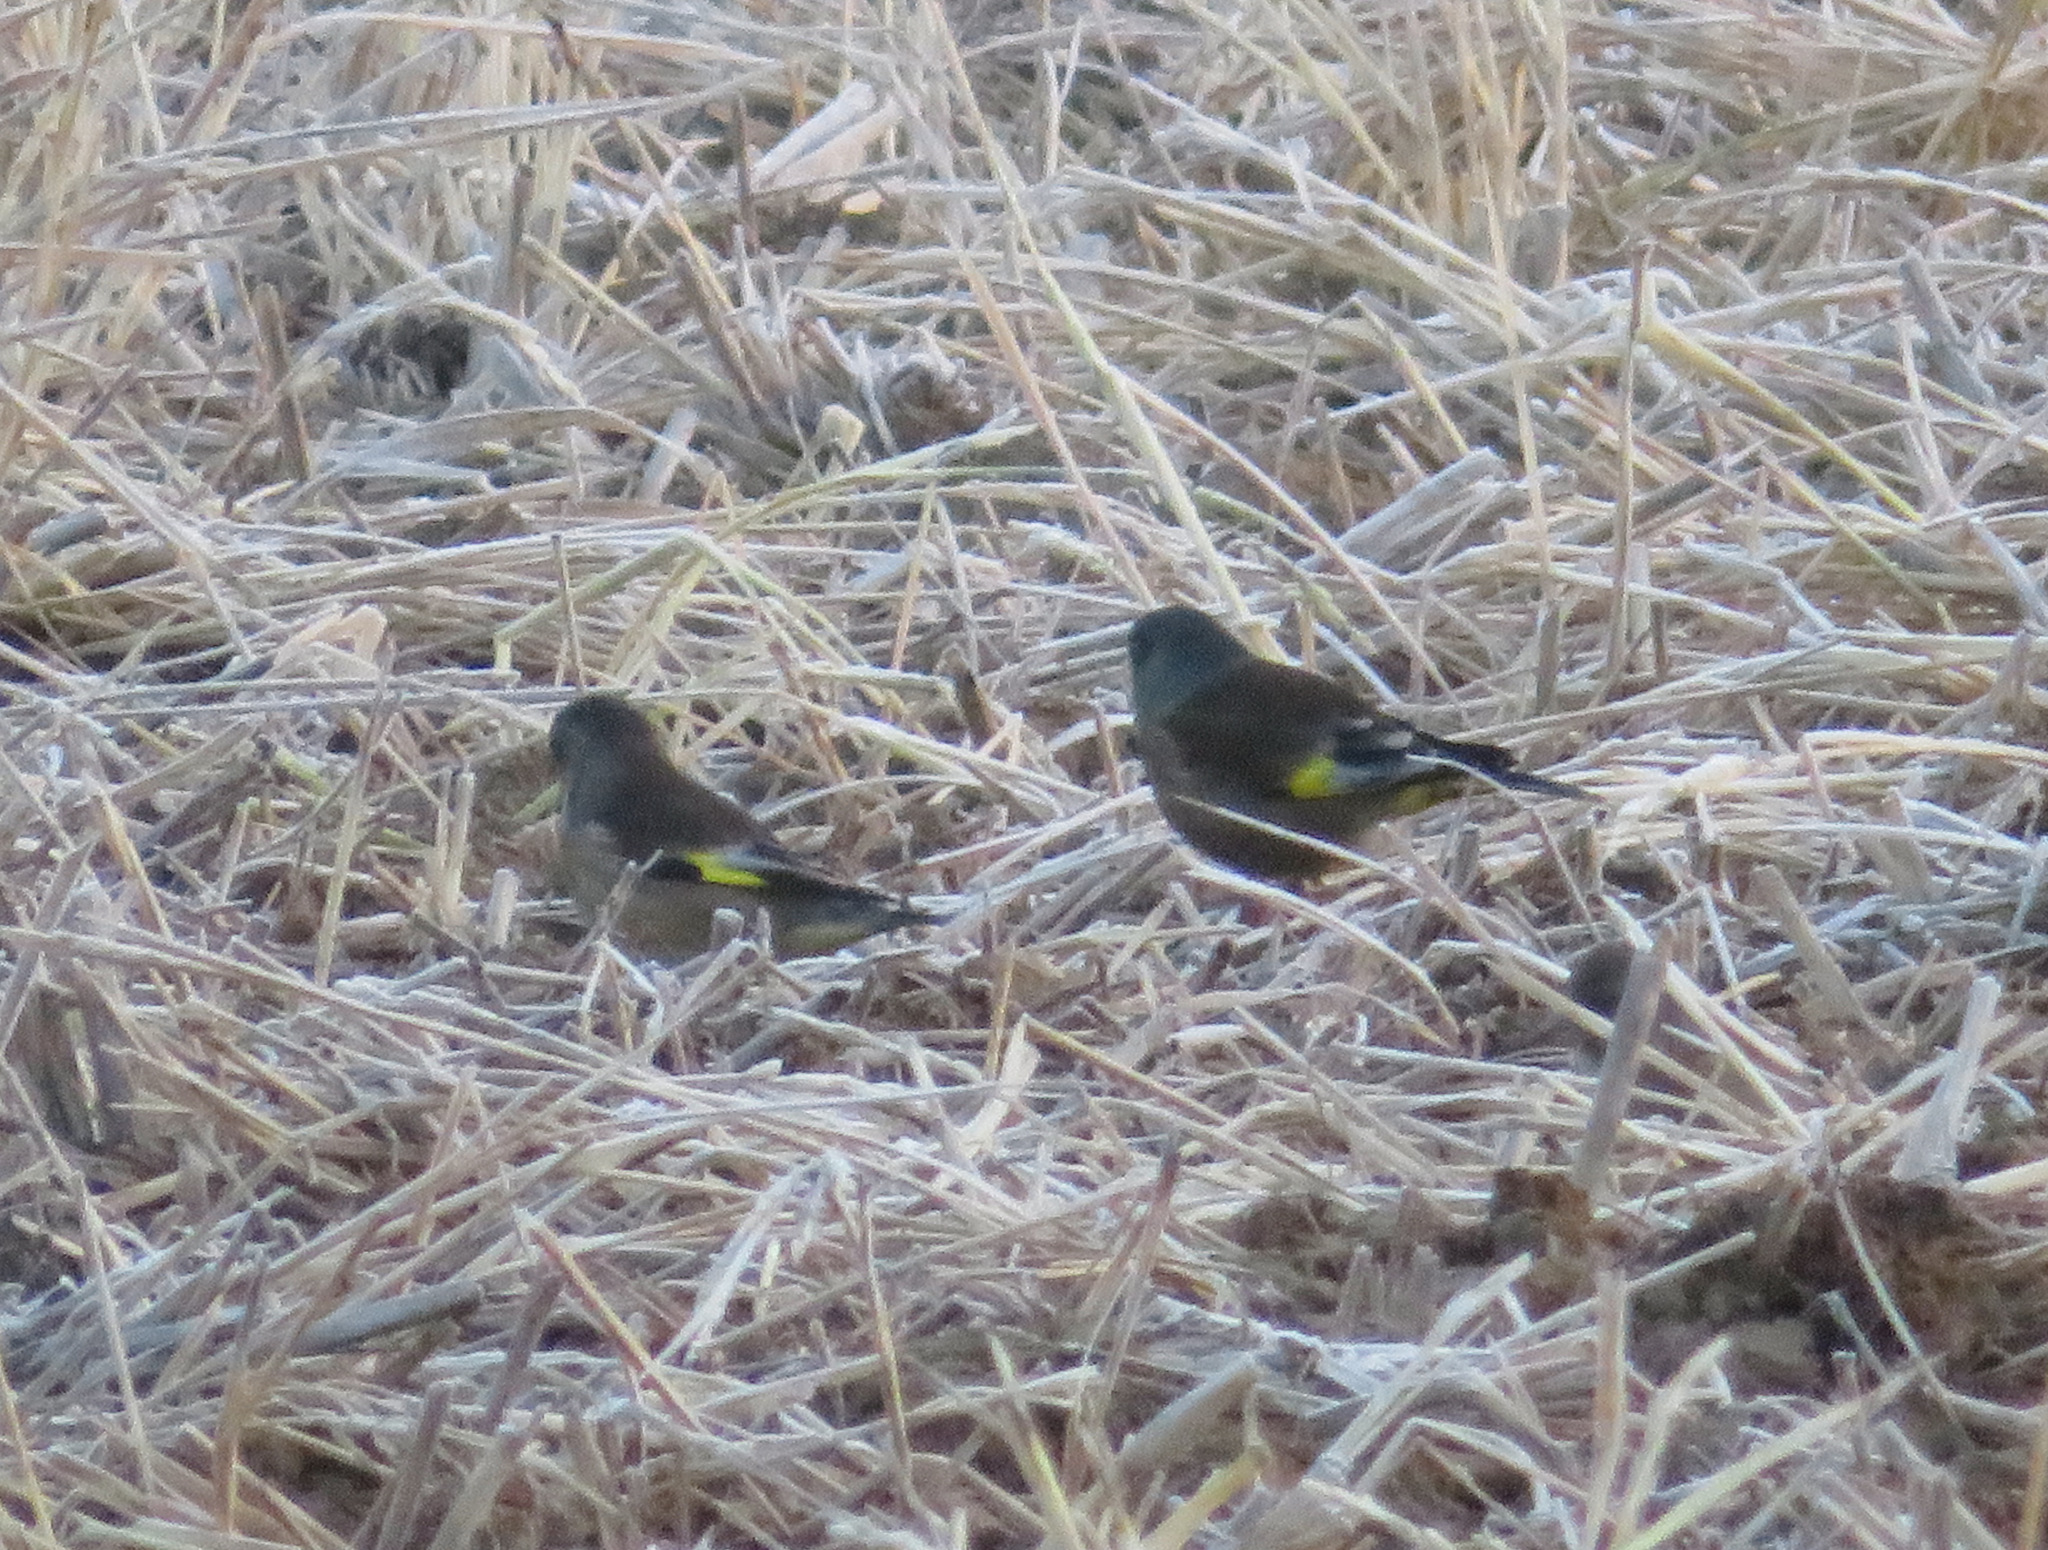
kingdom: Plantae
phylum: Tracheophyta
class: Liliopsida
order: Poales
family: Poaceae
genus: Chloris
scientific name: Chloris sinica
